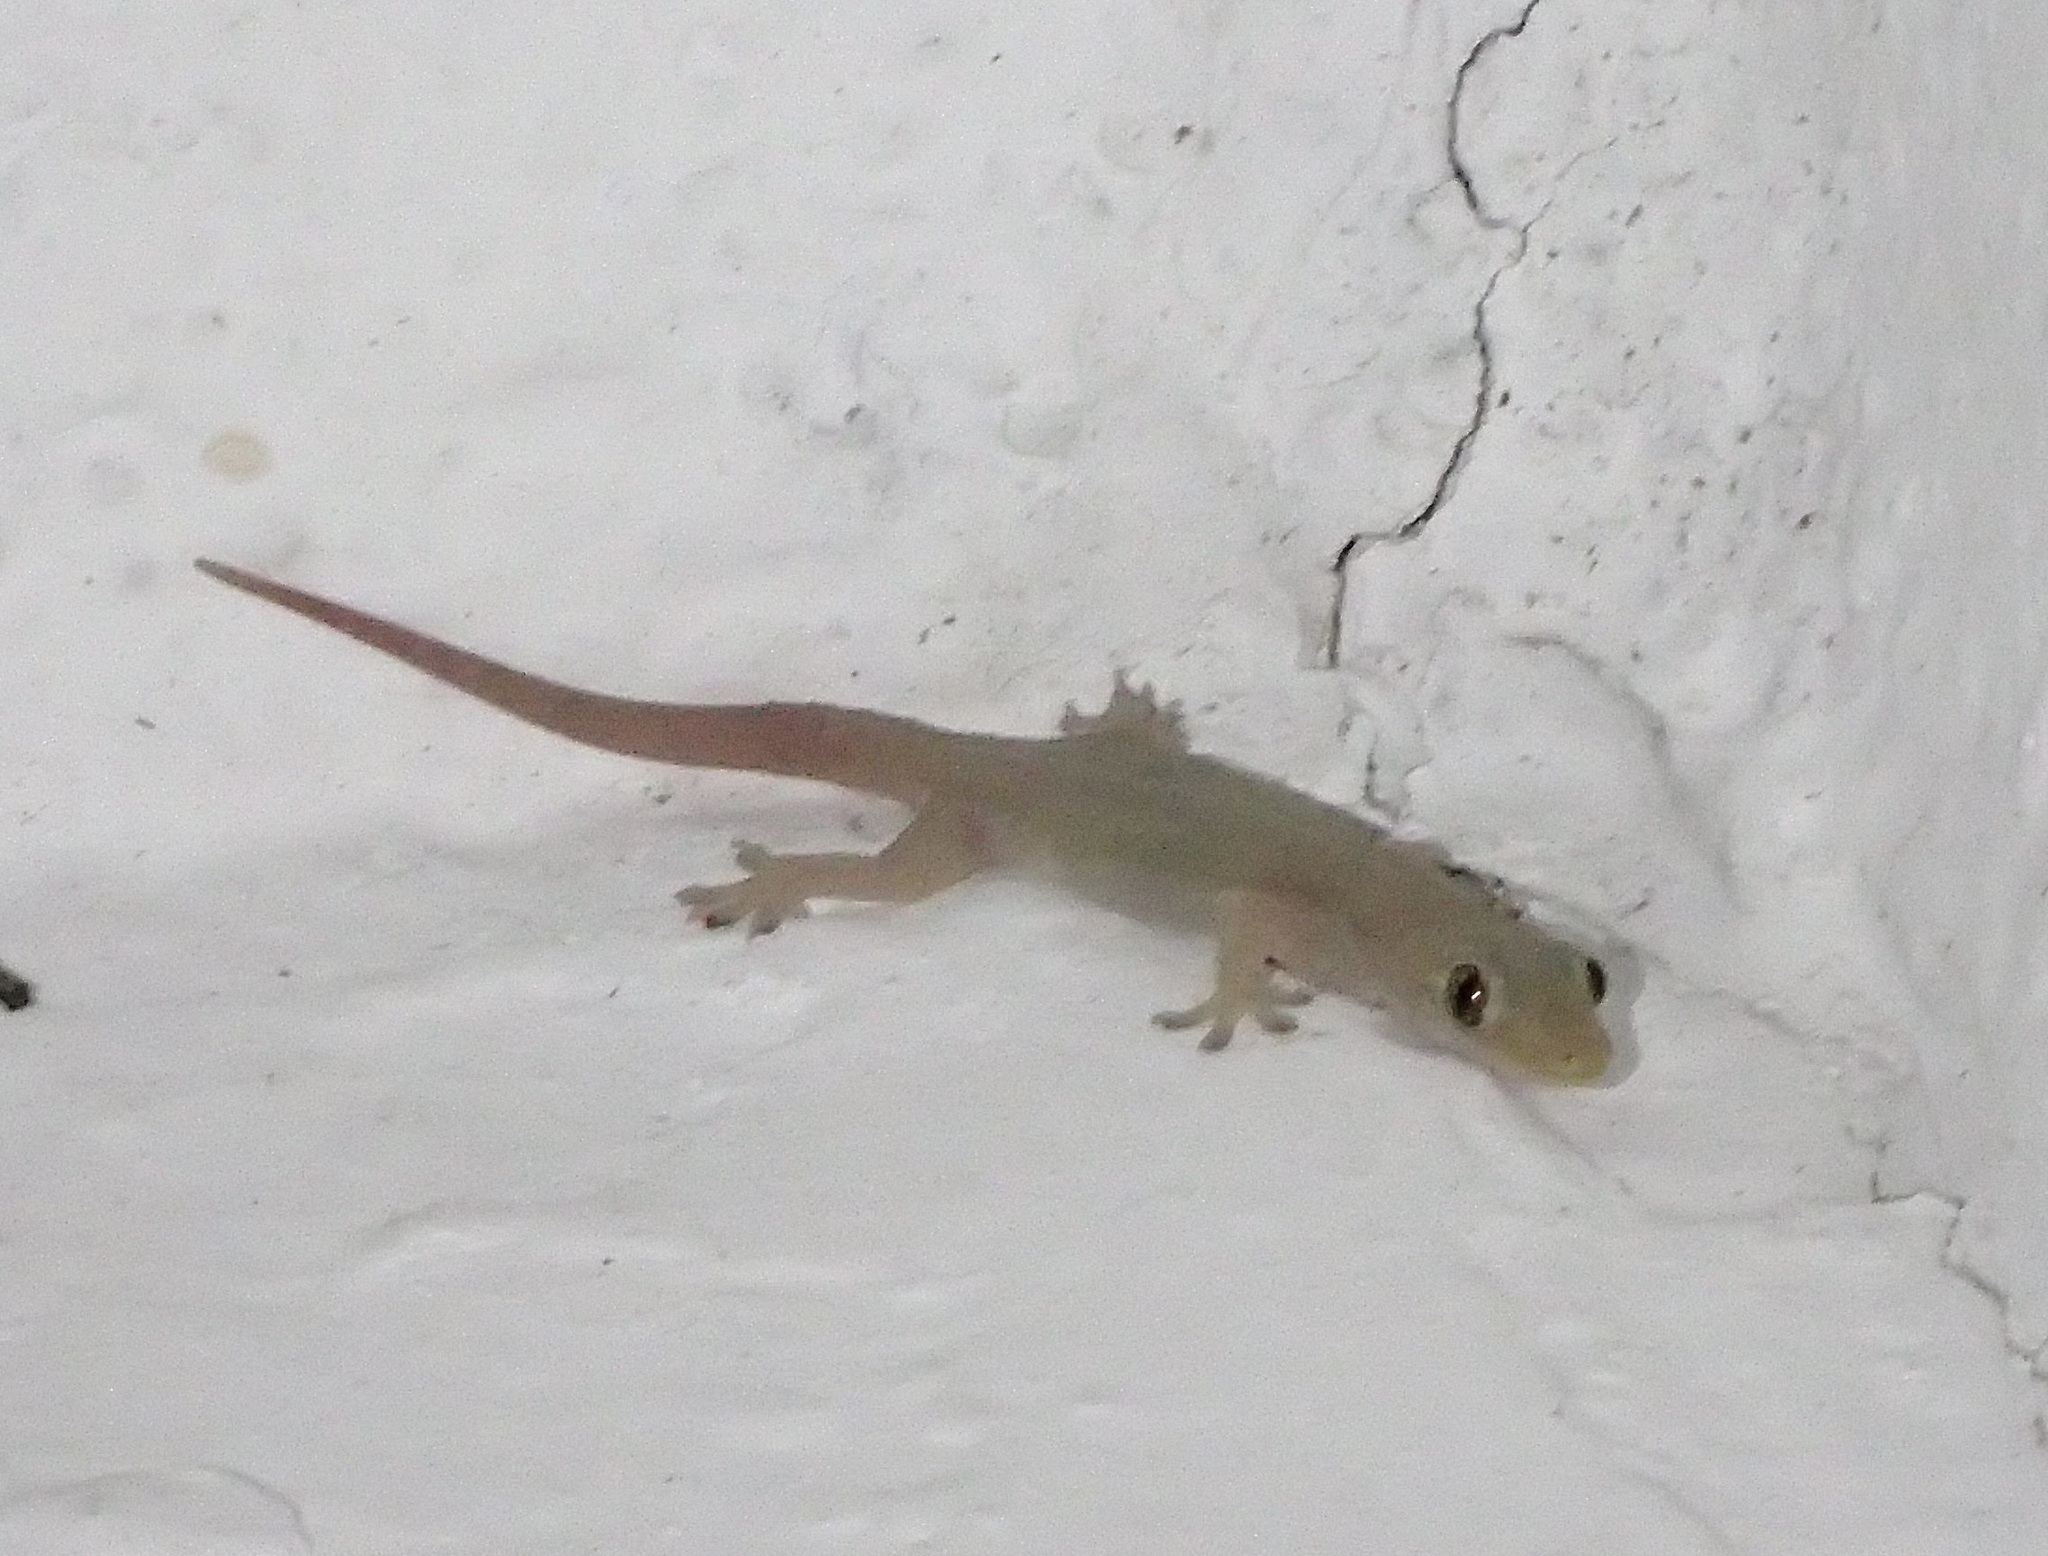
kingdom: Animalia
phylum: Chordata
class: Squamata
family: Gekkonidae
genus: Hemidactylus
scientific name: Hemidactylus frenatus
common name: Common house gecko
